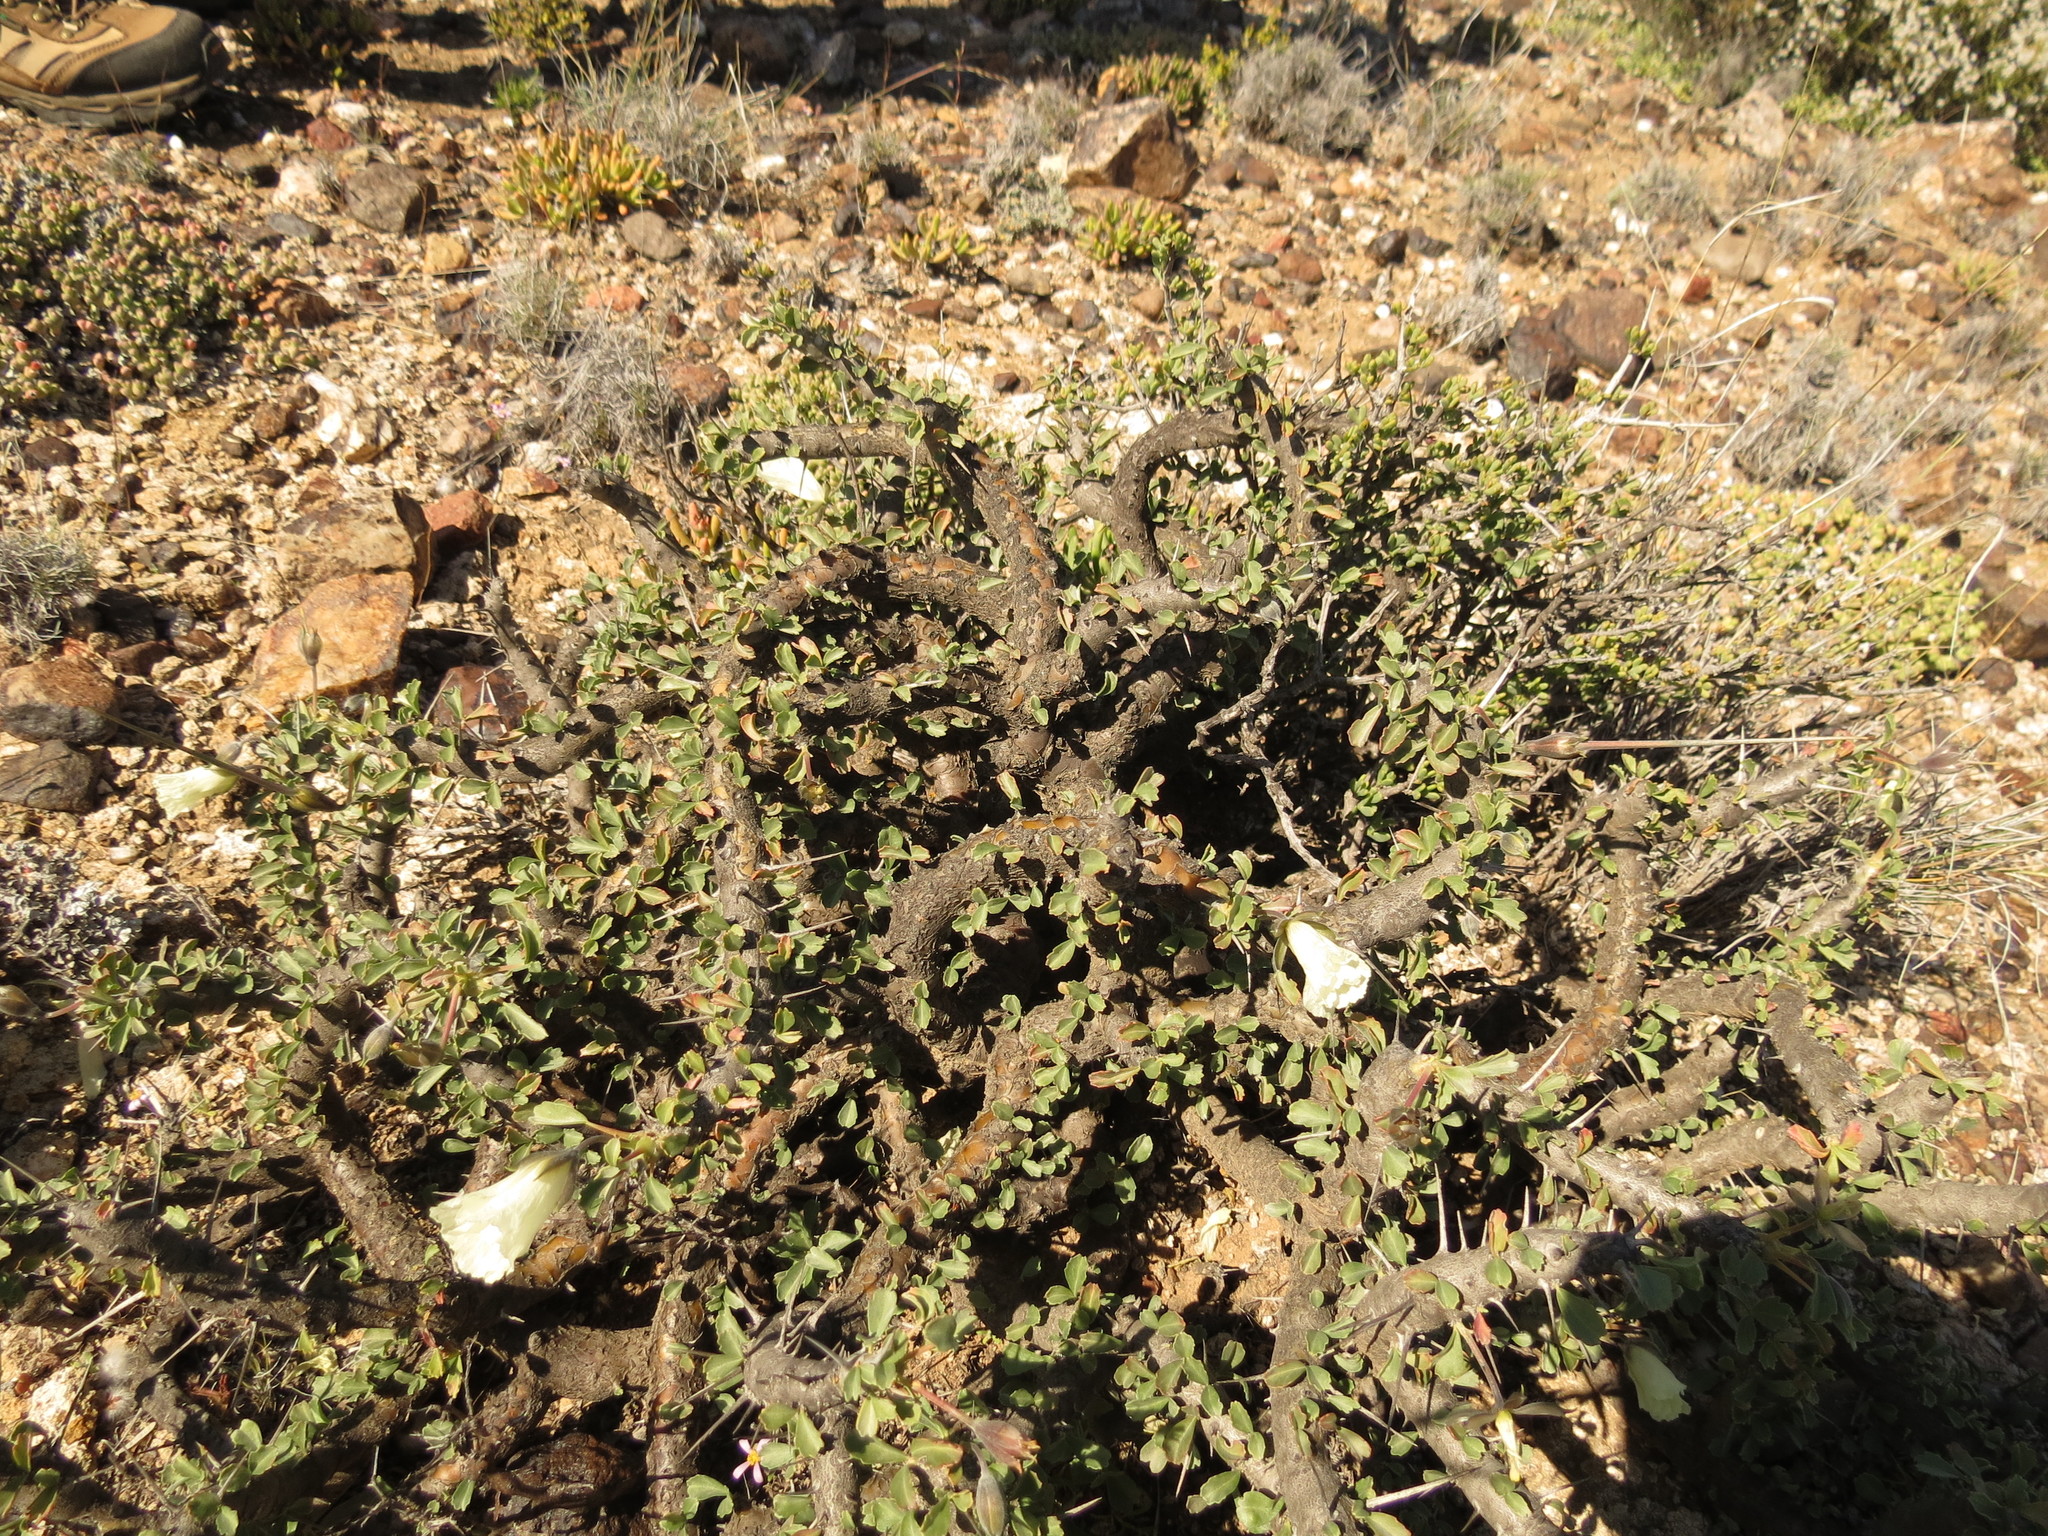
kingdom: Plantae
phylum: Tracheophyta
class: Magnoliopsida
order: Geraniales
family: Geraniaceae
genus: Monsonia
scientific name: Monsonia crassicaulis
